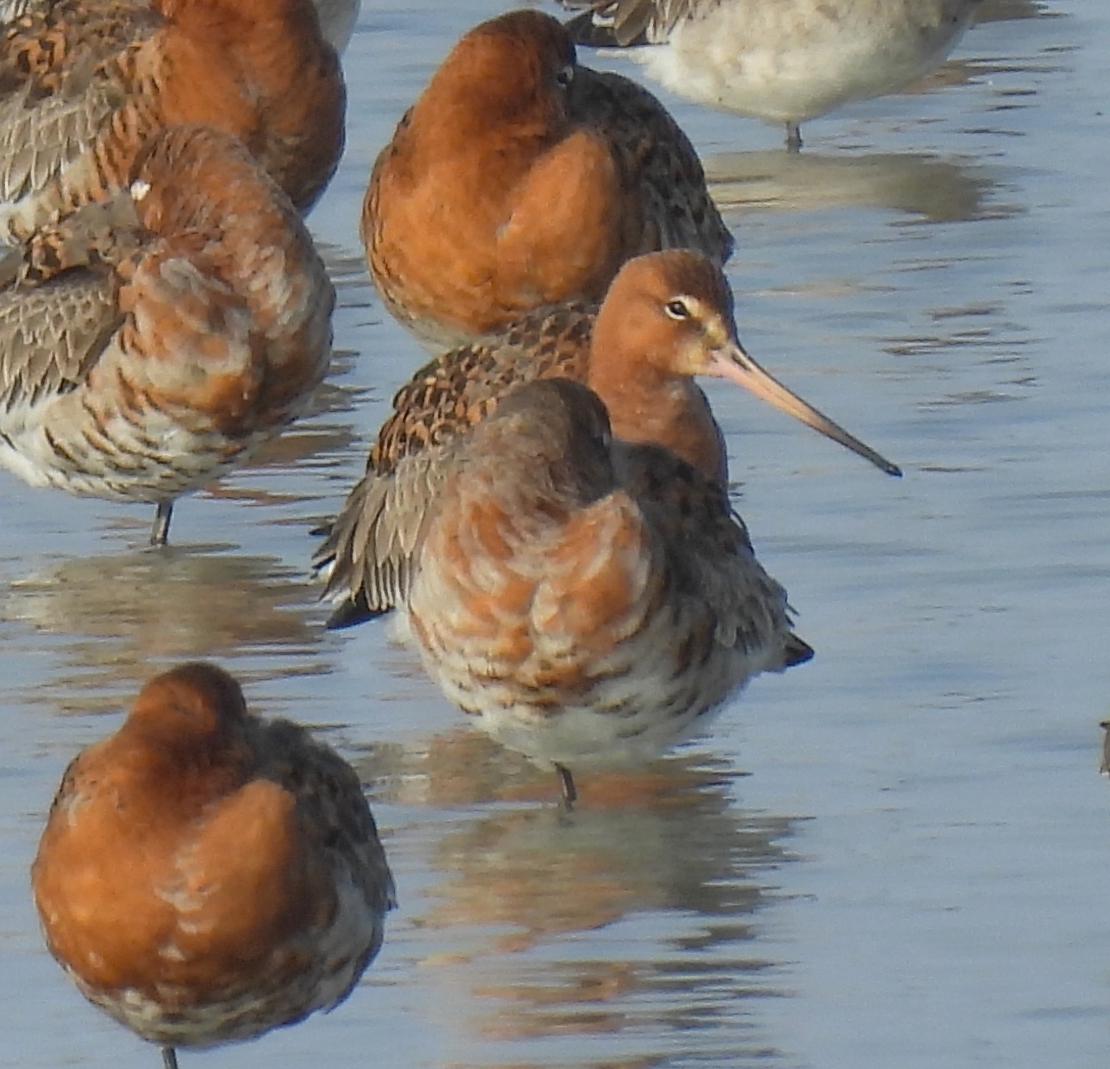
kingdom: Animalia
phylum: Chordata
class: Aves
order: Charadriiformes
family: Scolopacidae
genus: Limosa
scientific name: Limosa limosa
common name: Black-tailed godwit
